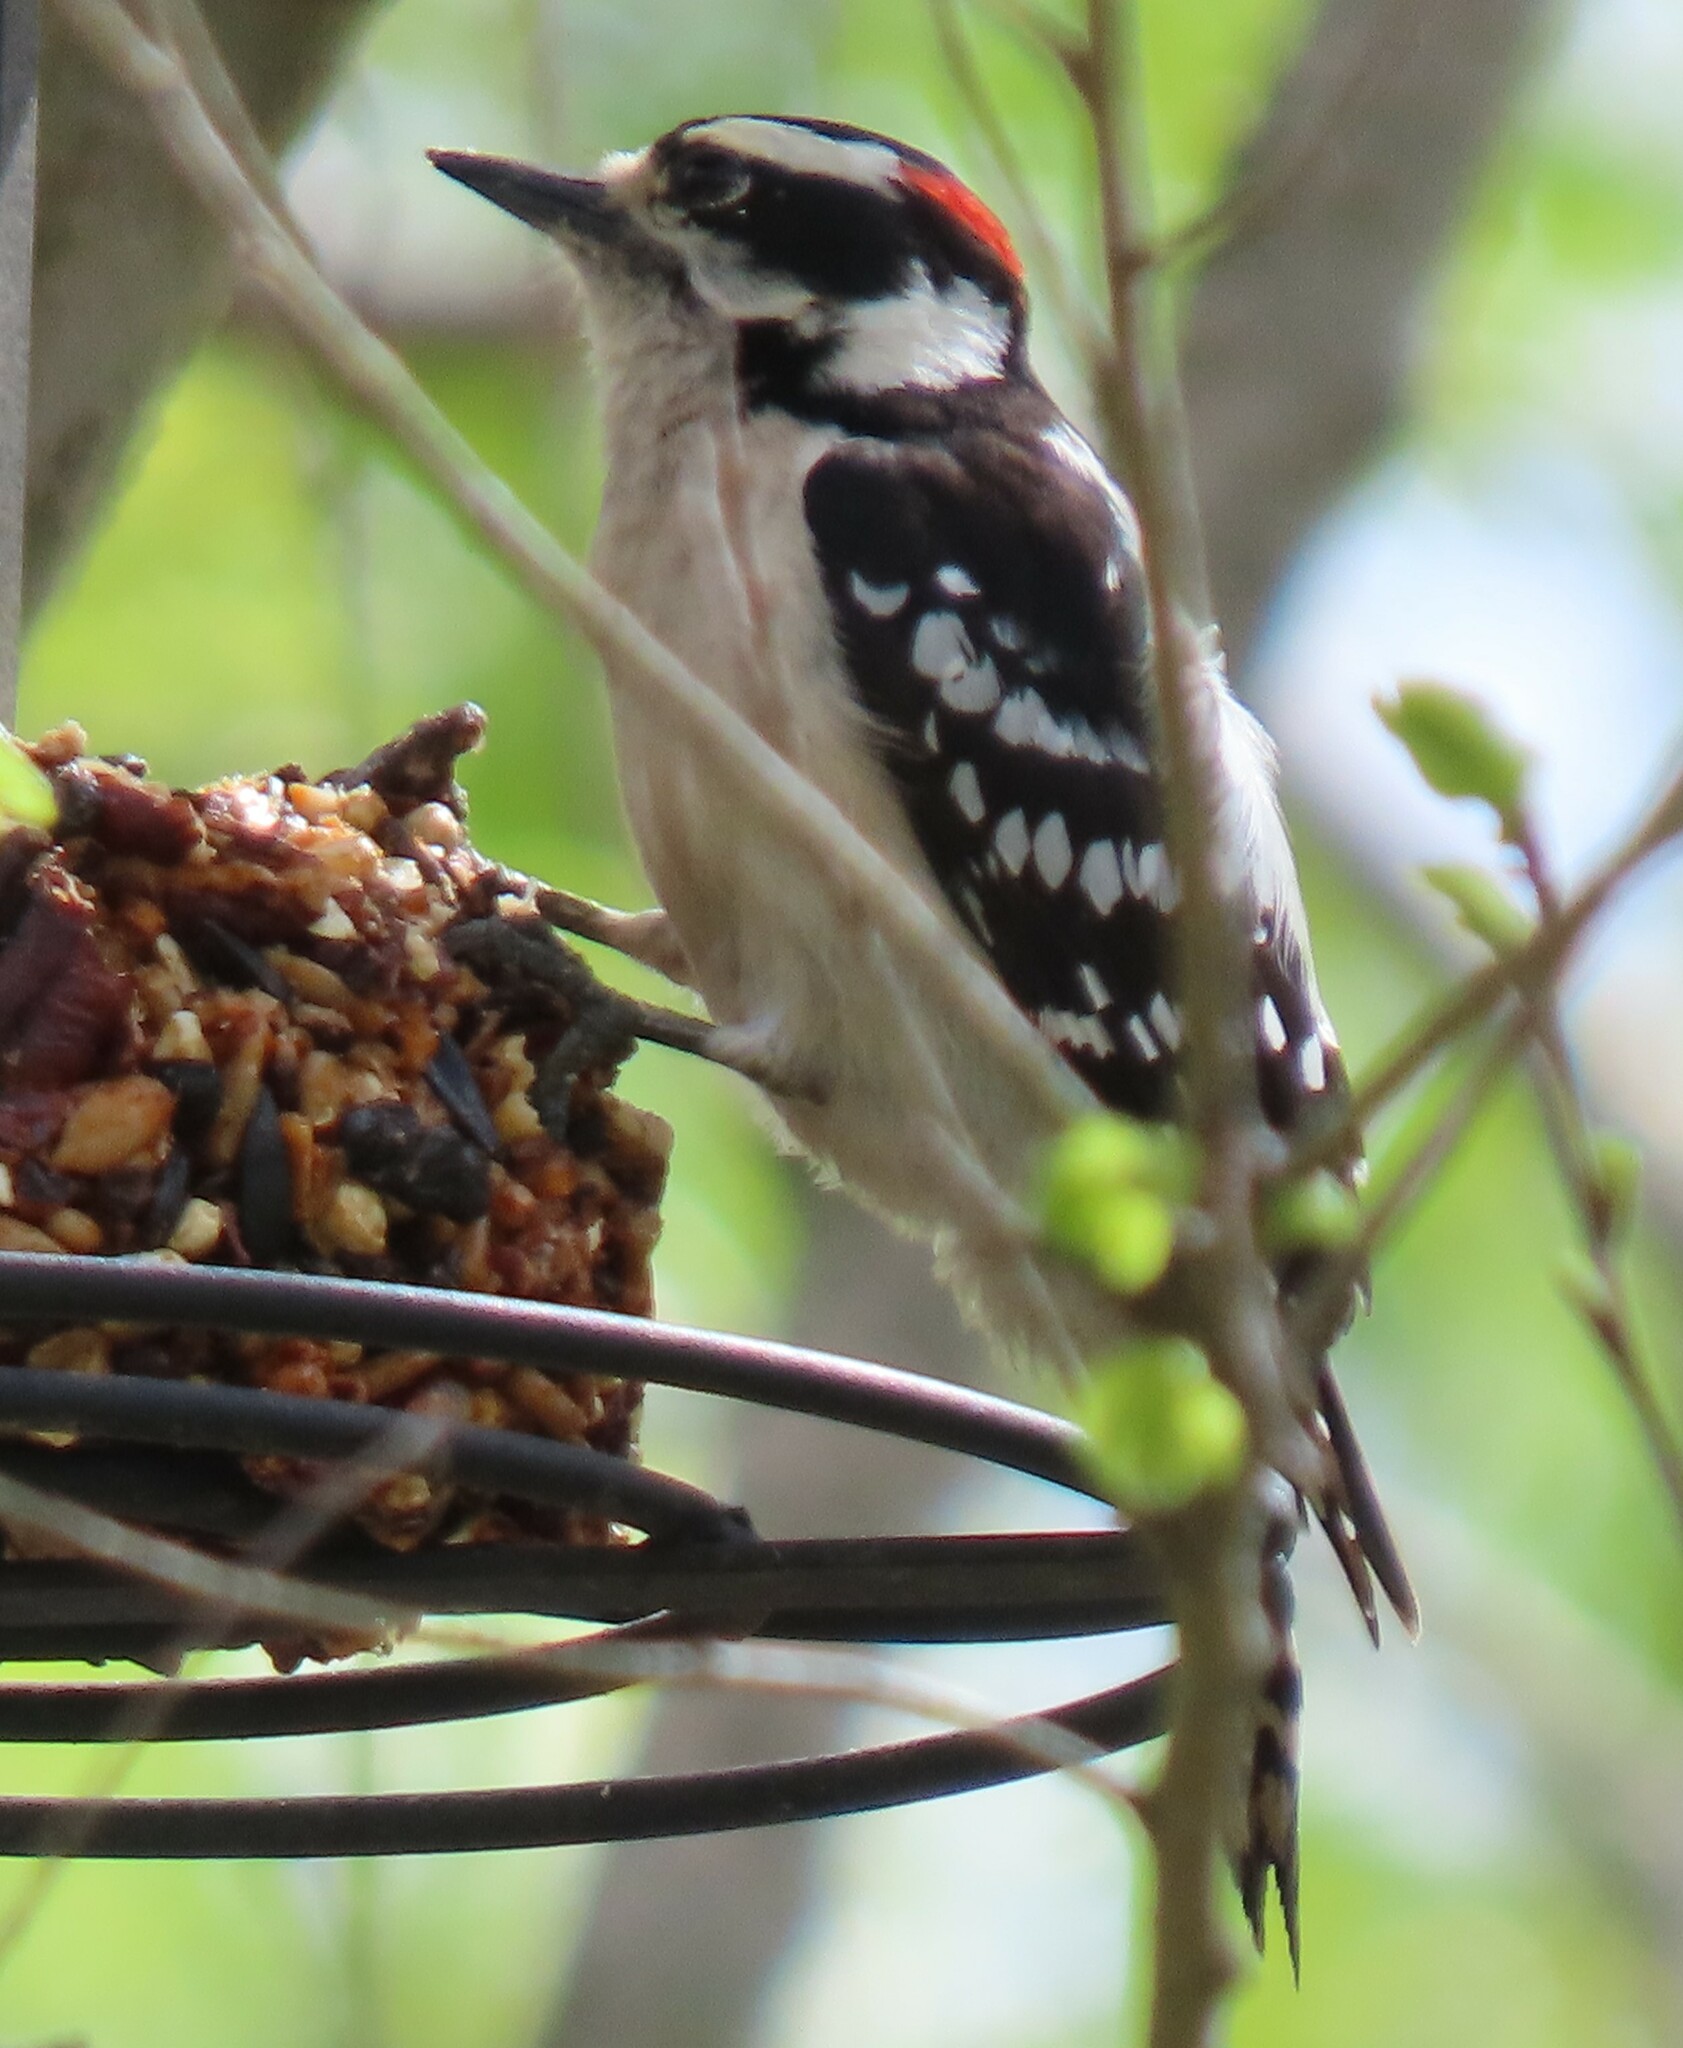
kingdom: Animalia
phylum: Chordata
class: Aves
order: Piciformes
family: Picidae
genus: Dryobates
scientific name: Dryobates pubescens
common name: Downy woodpecker
